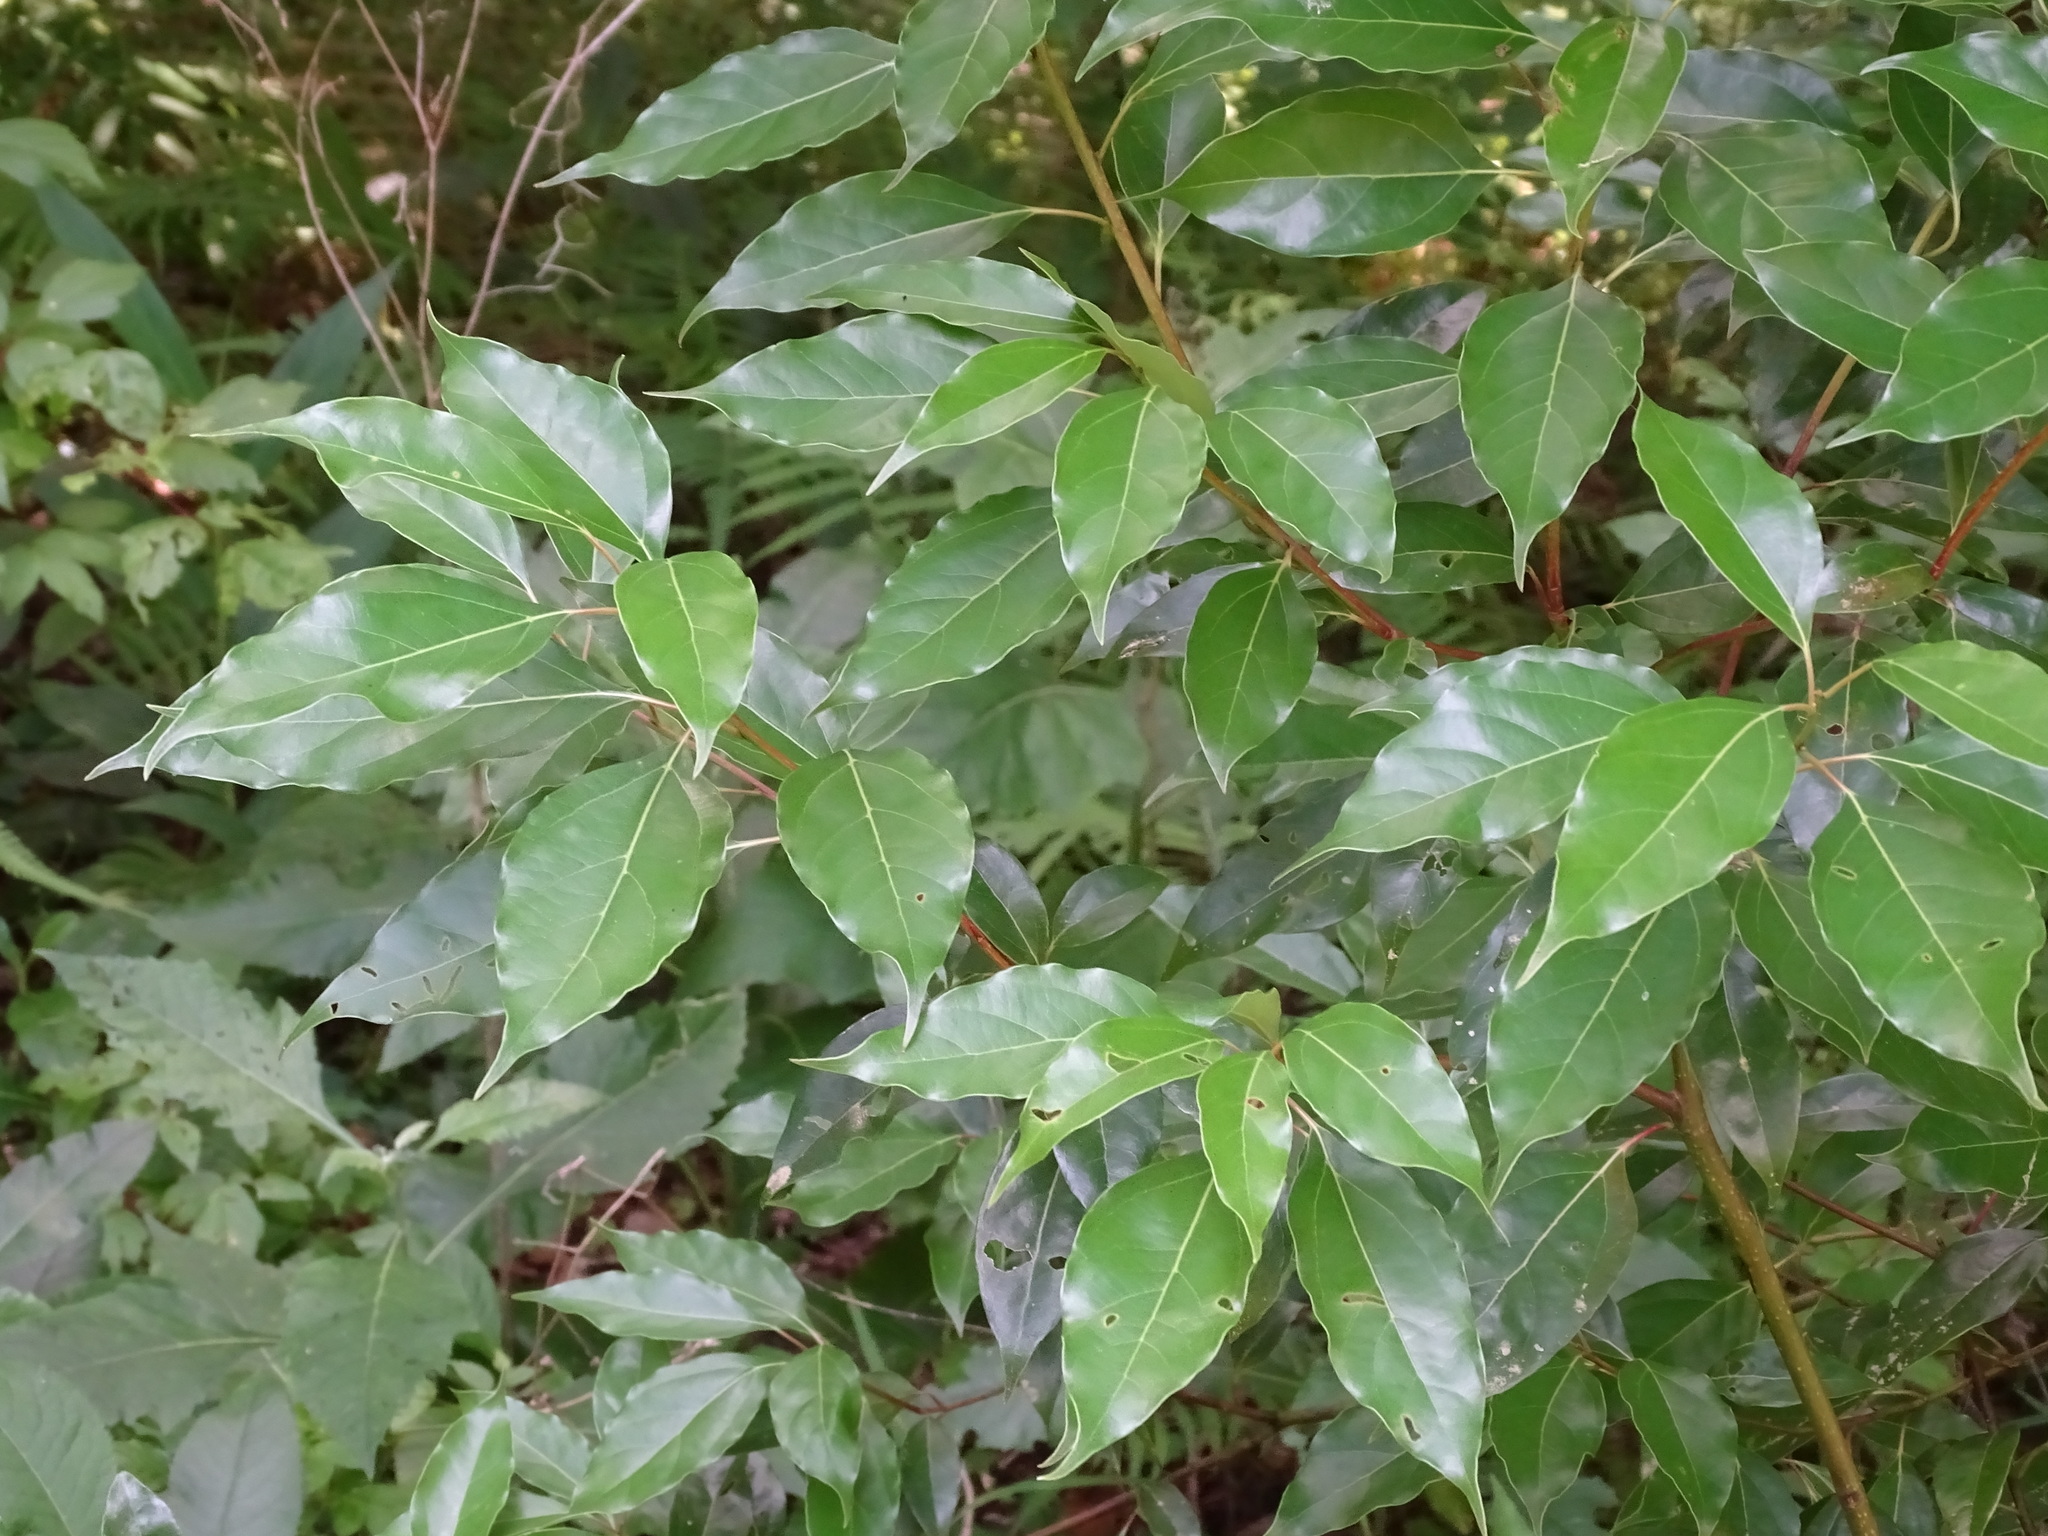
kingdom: Plantae
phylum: Tracheophyta
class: Magnoliopsida
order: Laurales
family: Lauraceae
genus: Cinnamomum
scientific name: Cinnamomum camphora
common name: Camphortree
